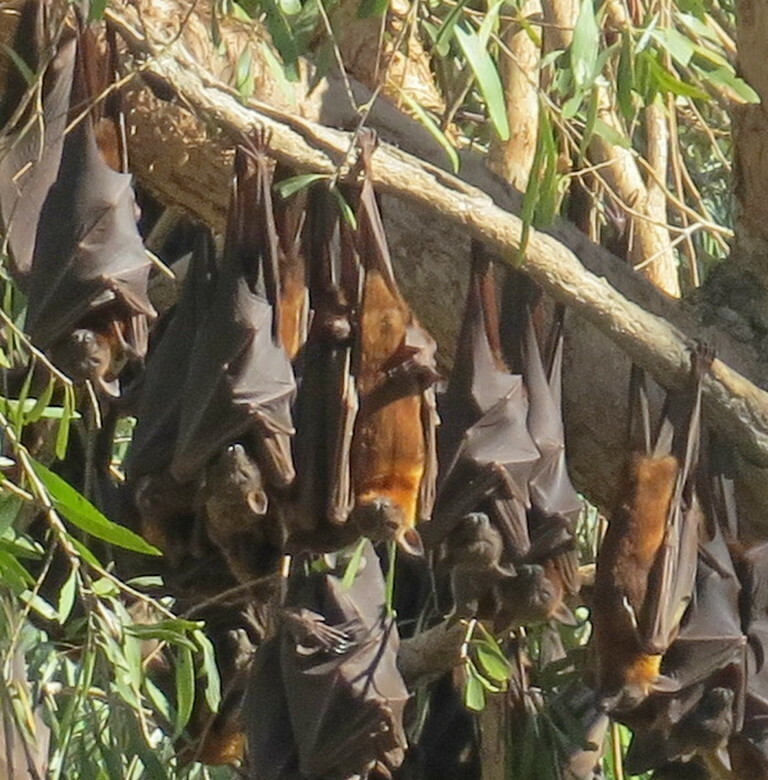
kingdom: Animalia
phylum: Chordata
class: Mammalia
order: Chiroptera
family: Pteropodidae
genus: Pteropus
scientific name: Pteropus scapulatus
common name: Little red flying fox
